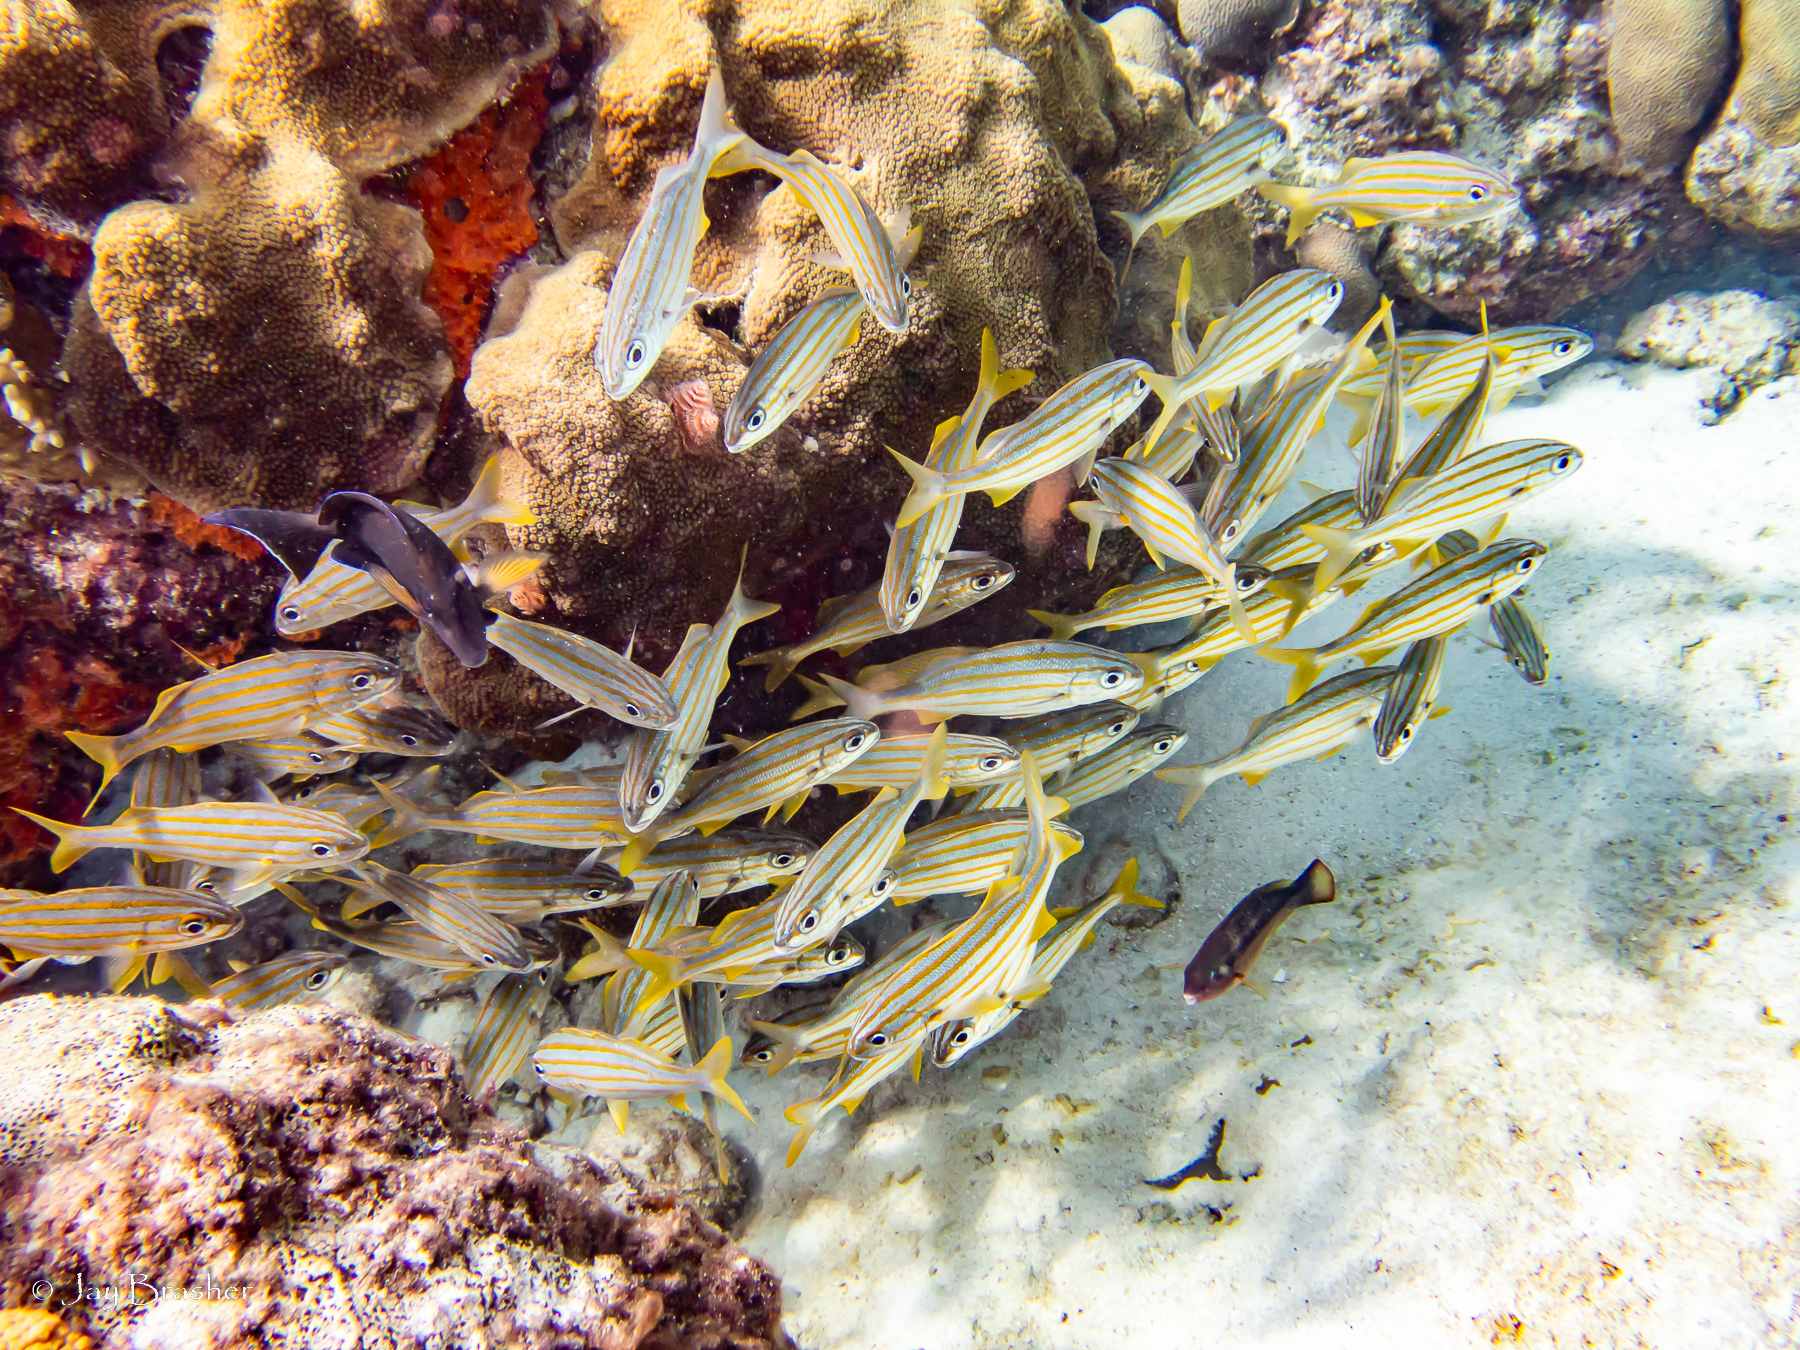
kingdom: Animalia
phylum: Chordata
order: Perciformes
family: Haemulidae
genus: Haemulon
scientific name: Haemulon chrysargyreum
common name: Smallmouth grunt
